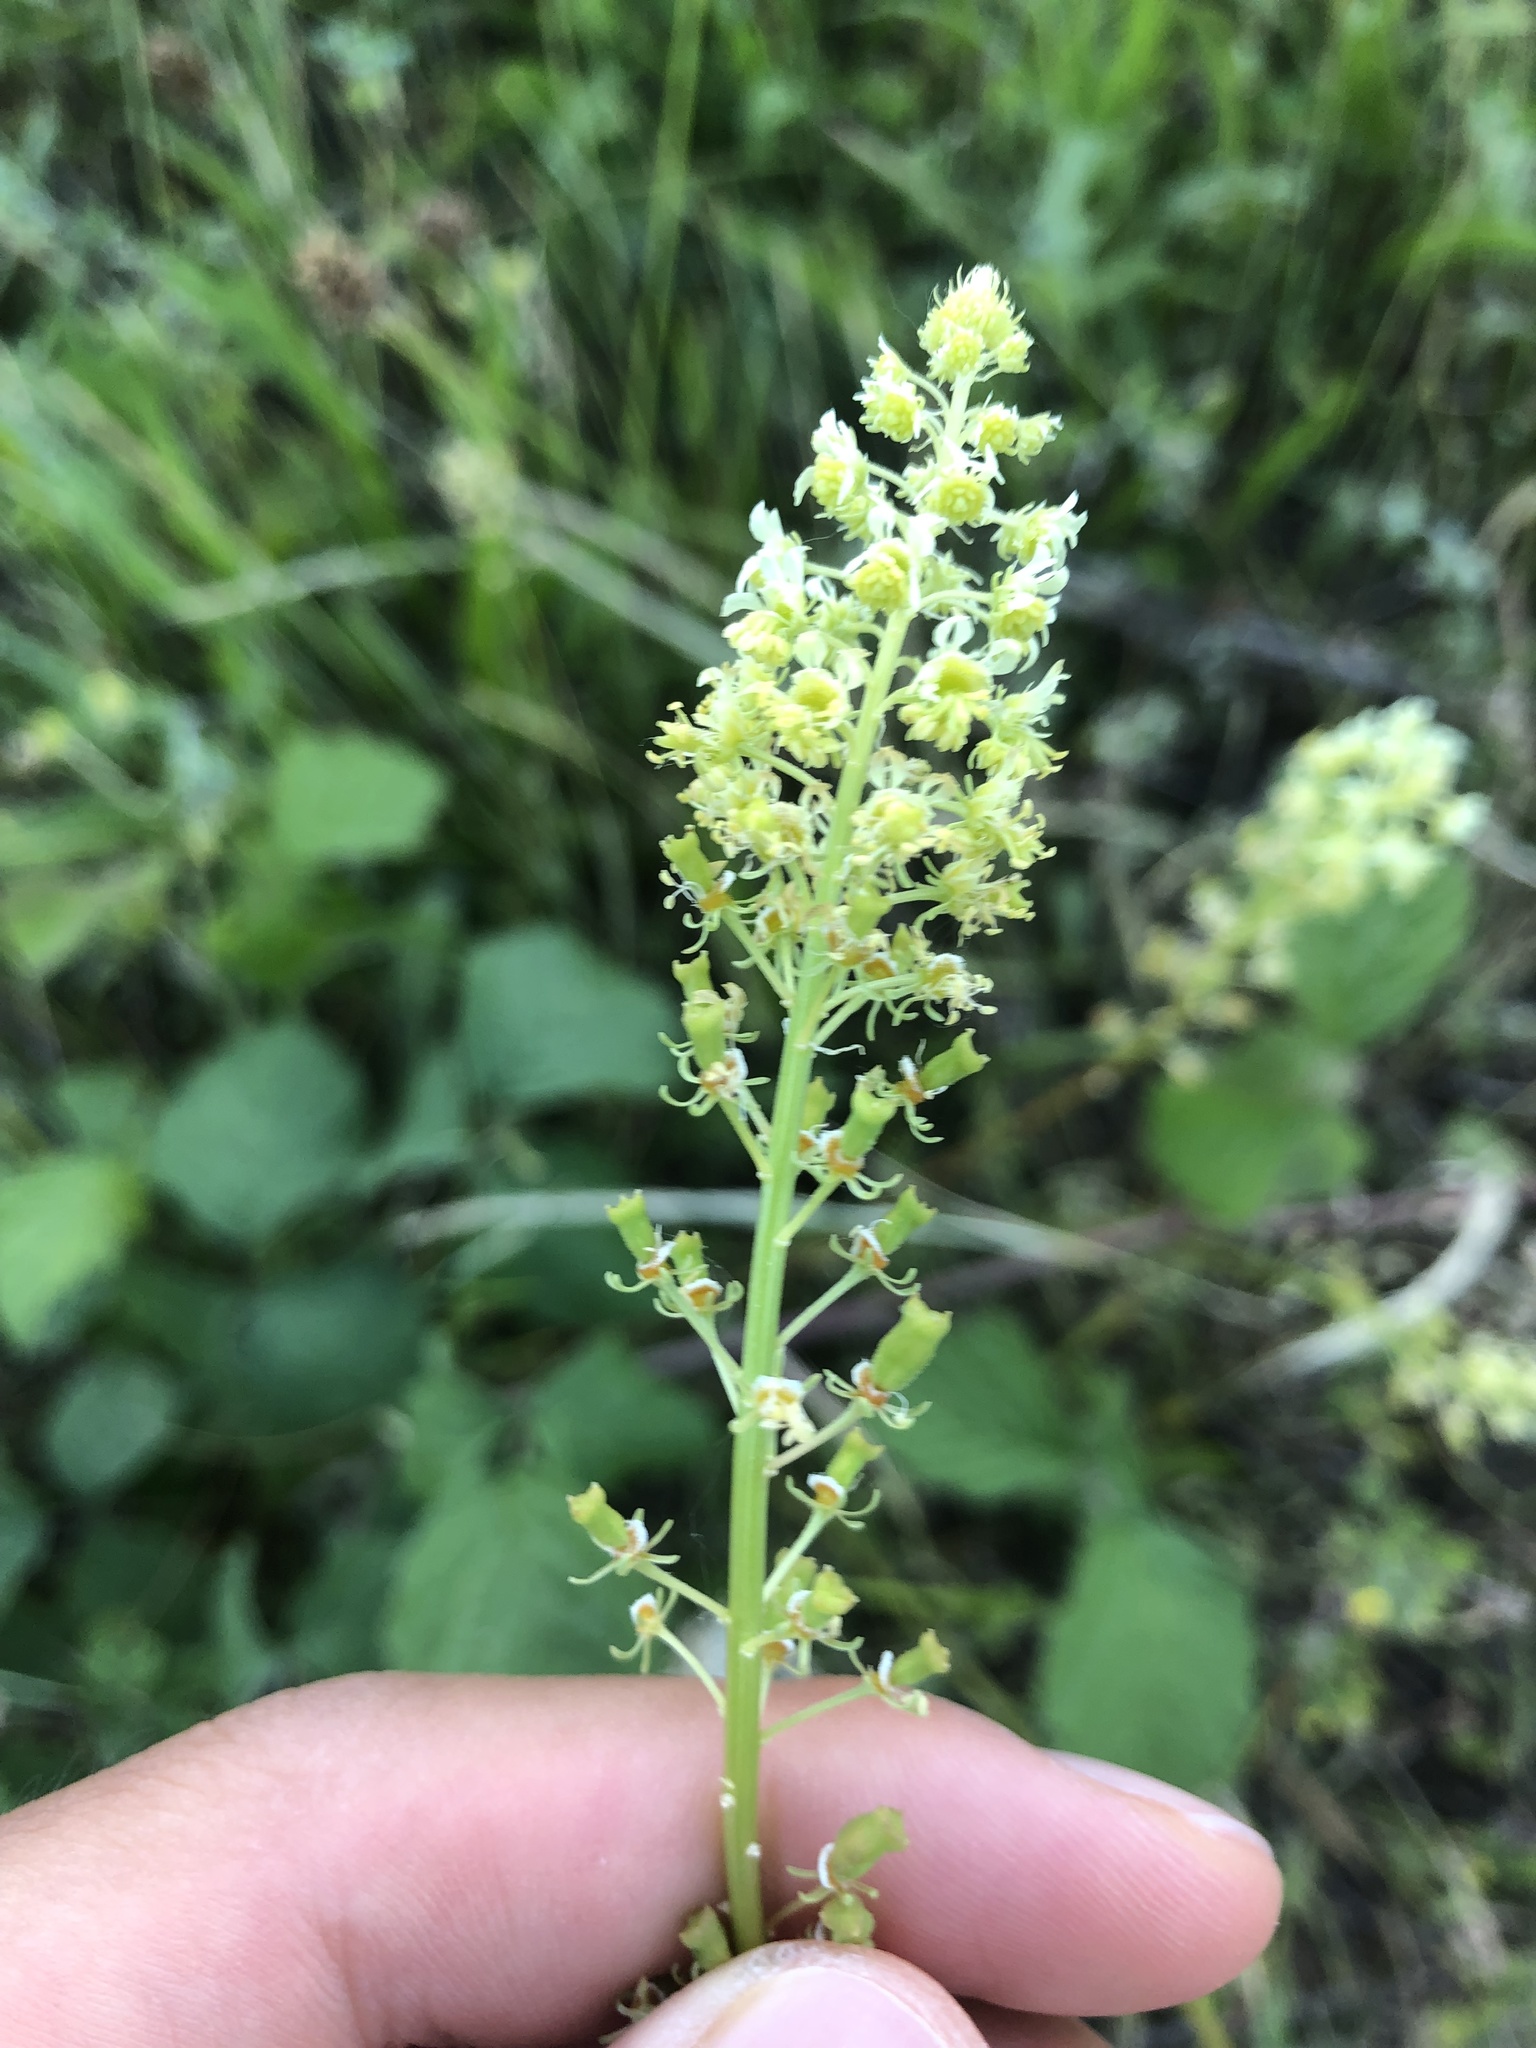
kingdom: Plantae
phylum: Tracheophyta
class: Magnoliopsida
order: Brassicales
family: Resedaceae
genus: Reseda
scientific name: Reseda lutea
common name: Wild mignonette
